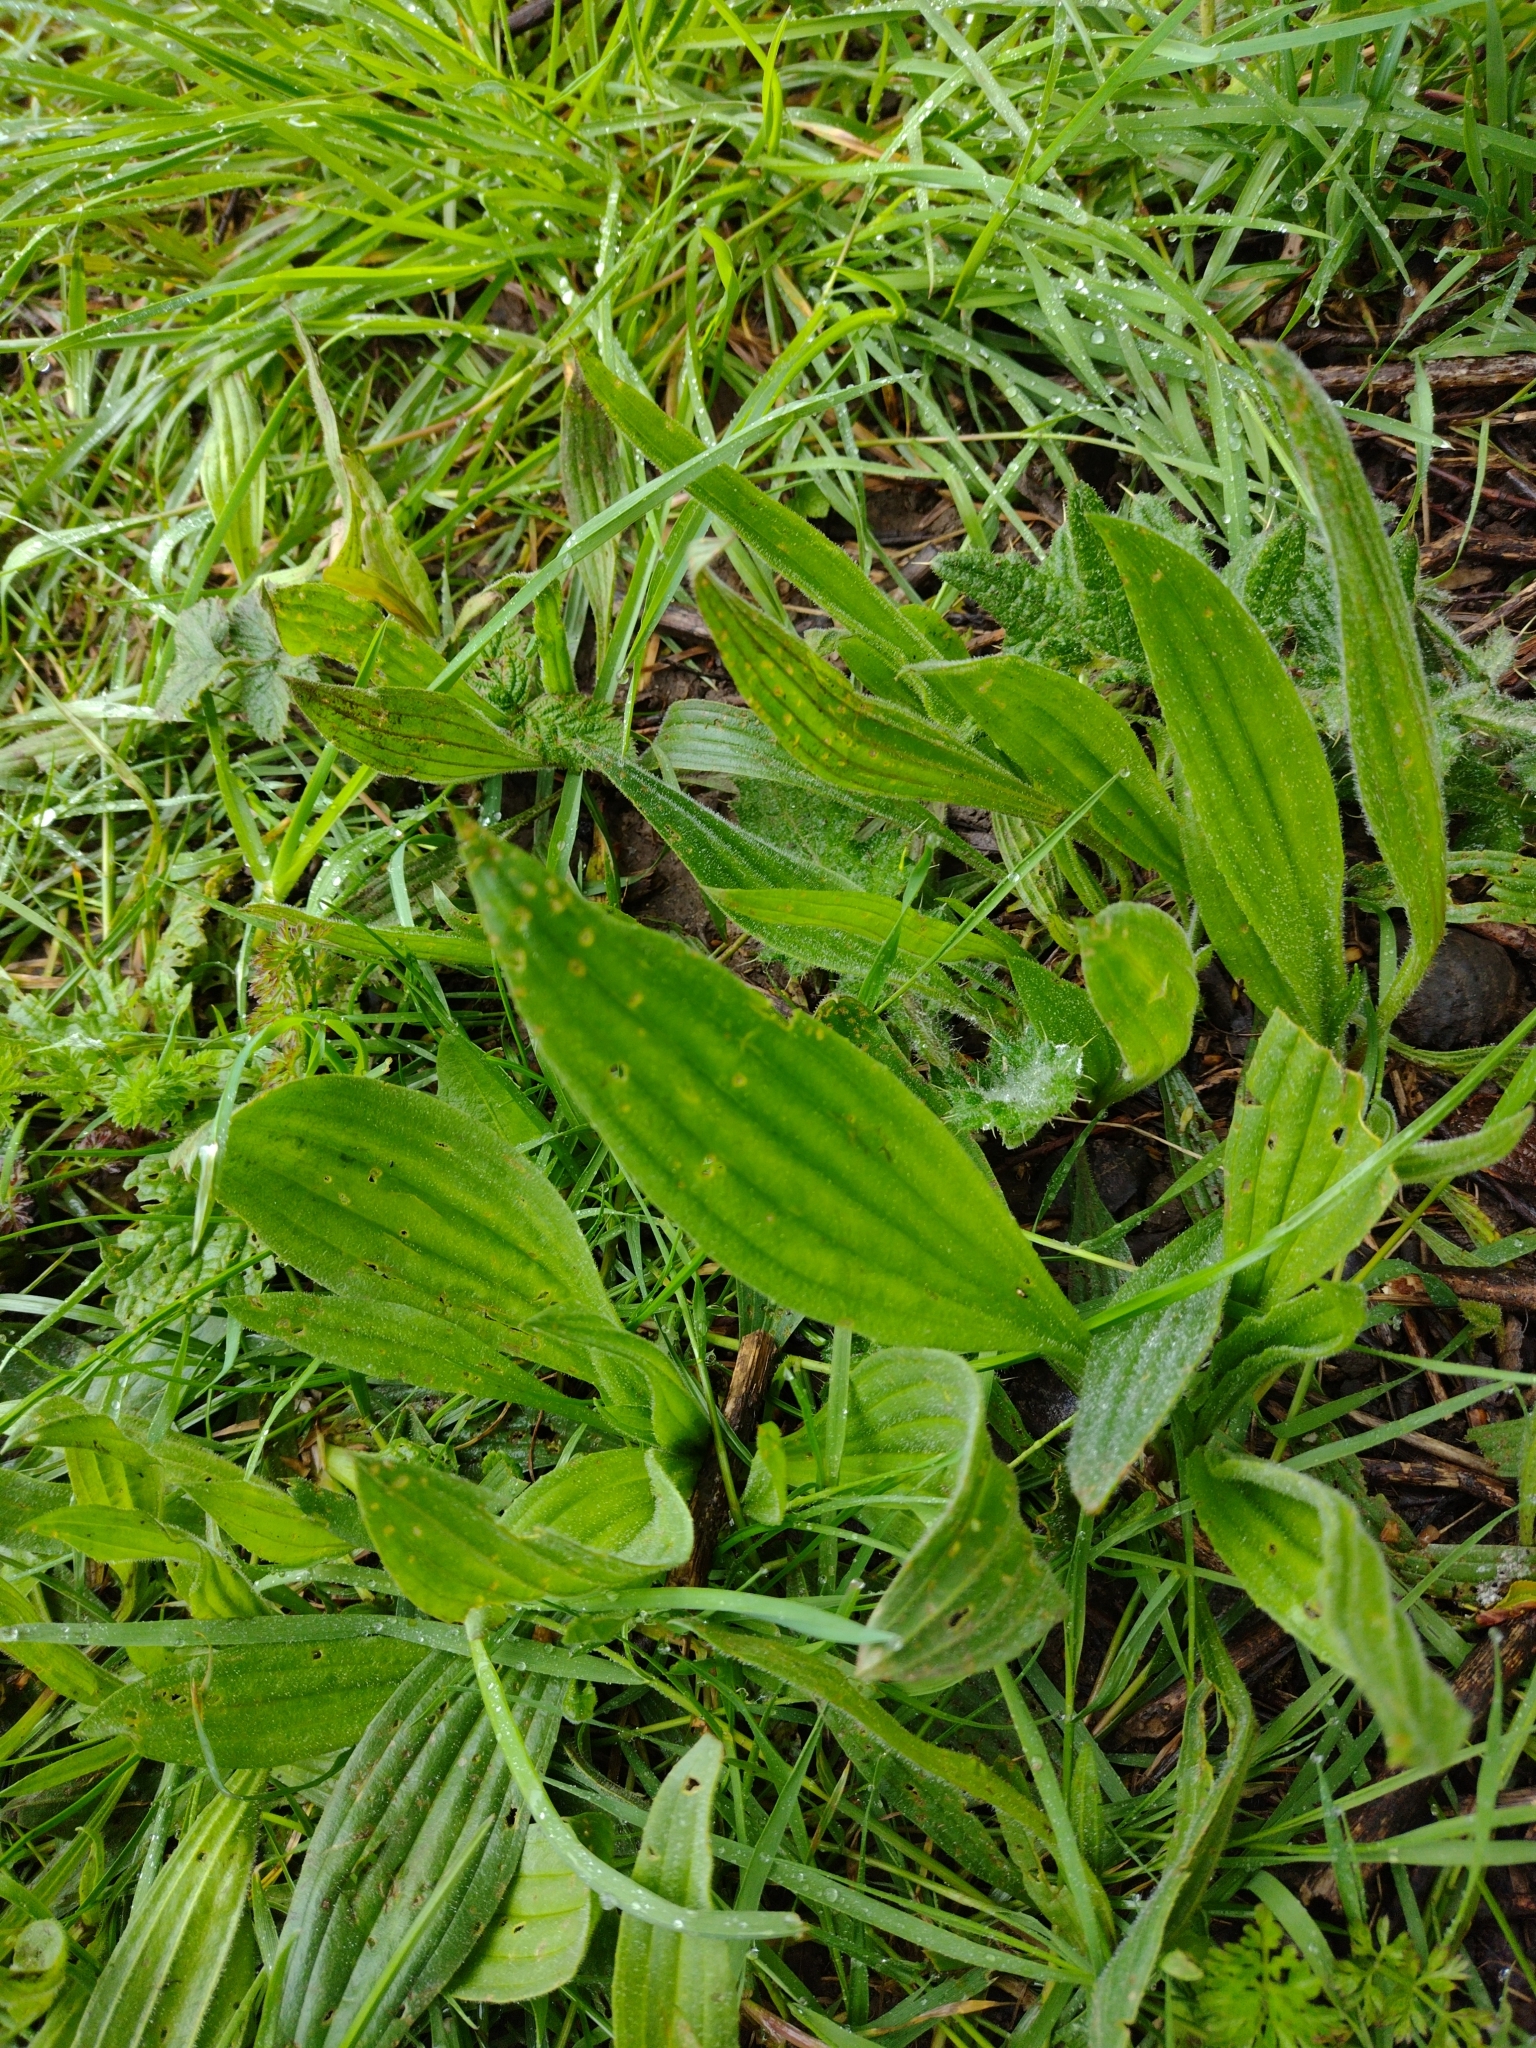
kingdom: Plantae
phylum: Tracheophyta
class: Magnoliopsida
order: Lamiales
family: Plantaginaceae
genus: Plantago
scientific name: Plantago lanceolata
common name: Ribwort plantain
